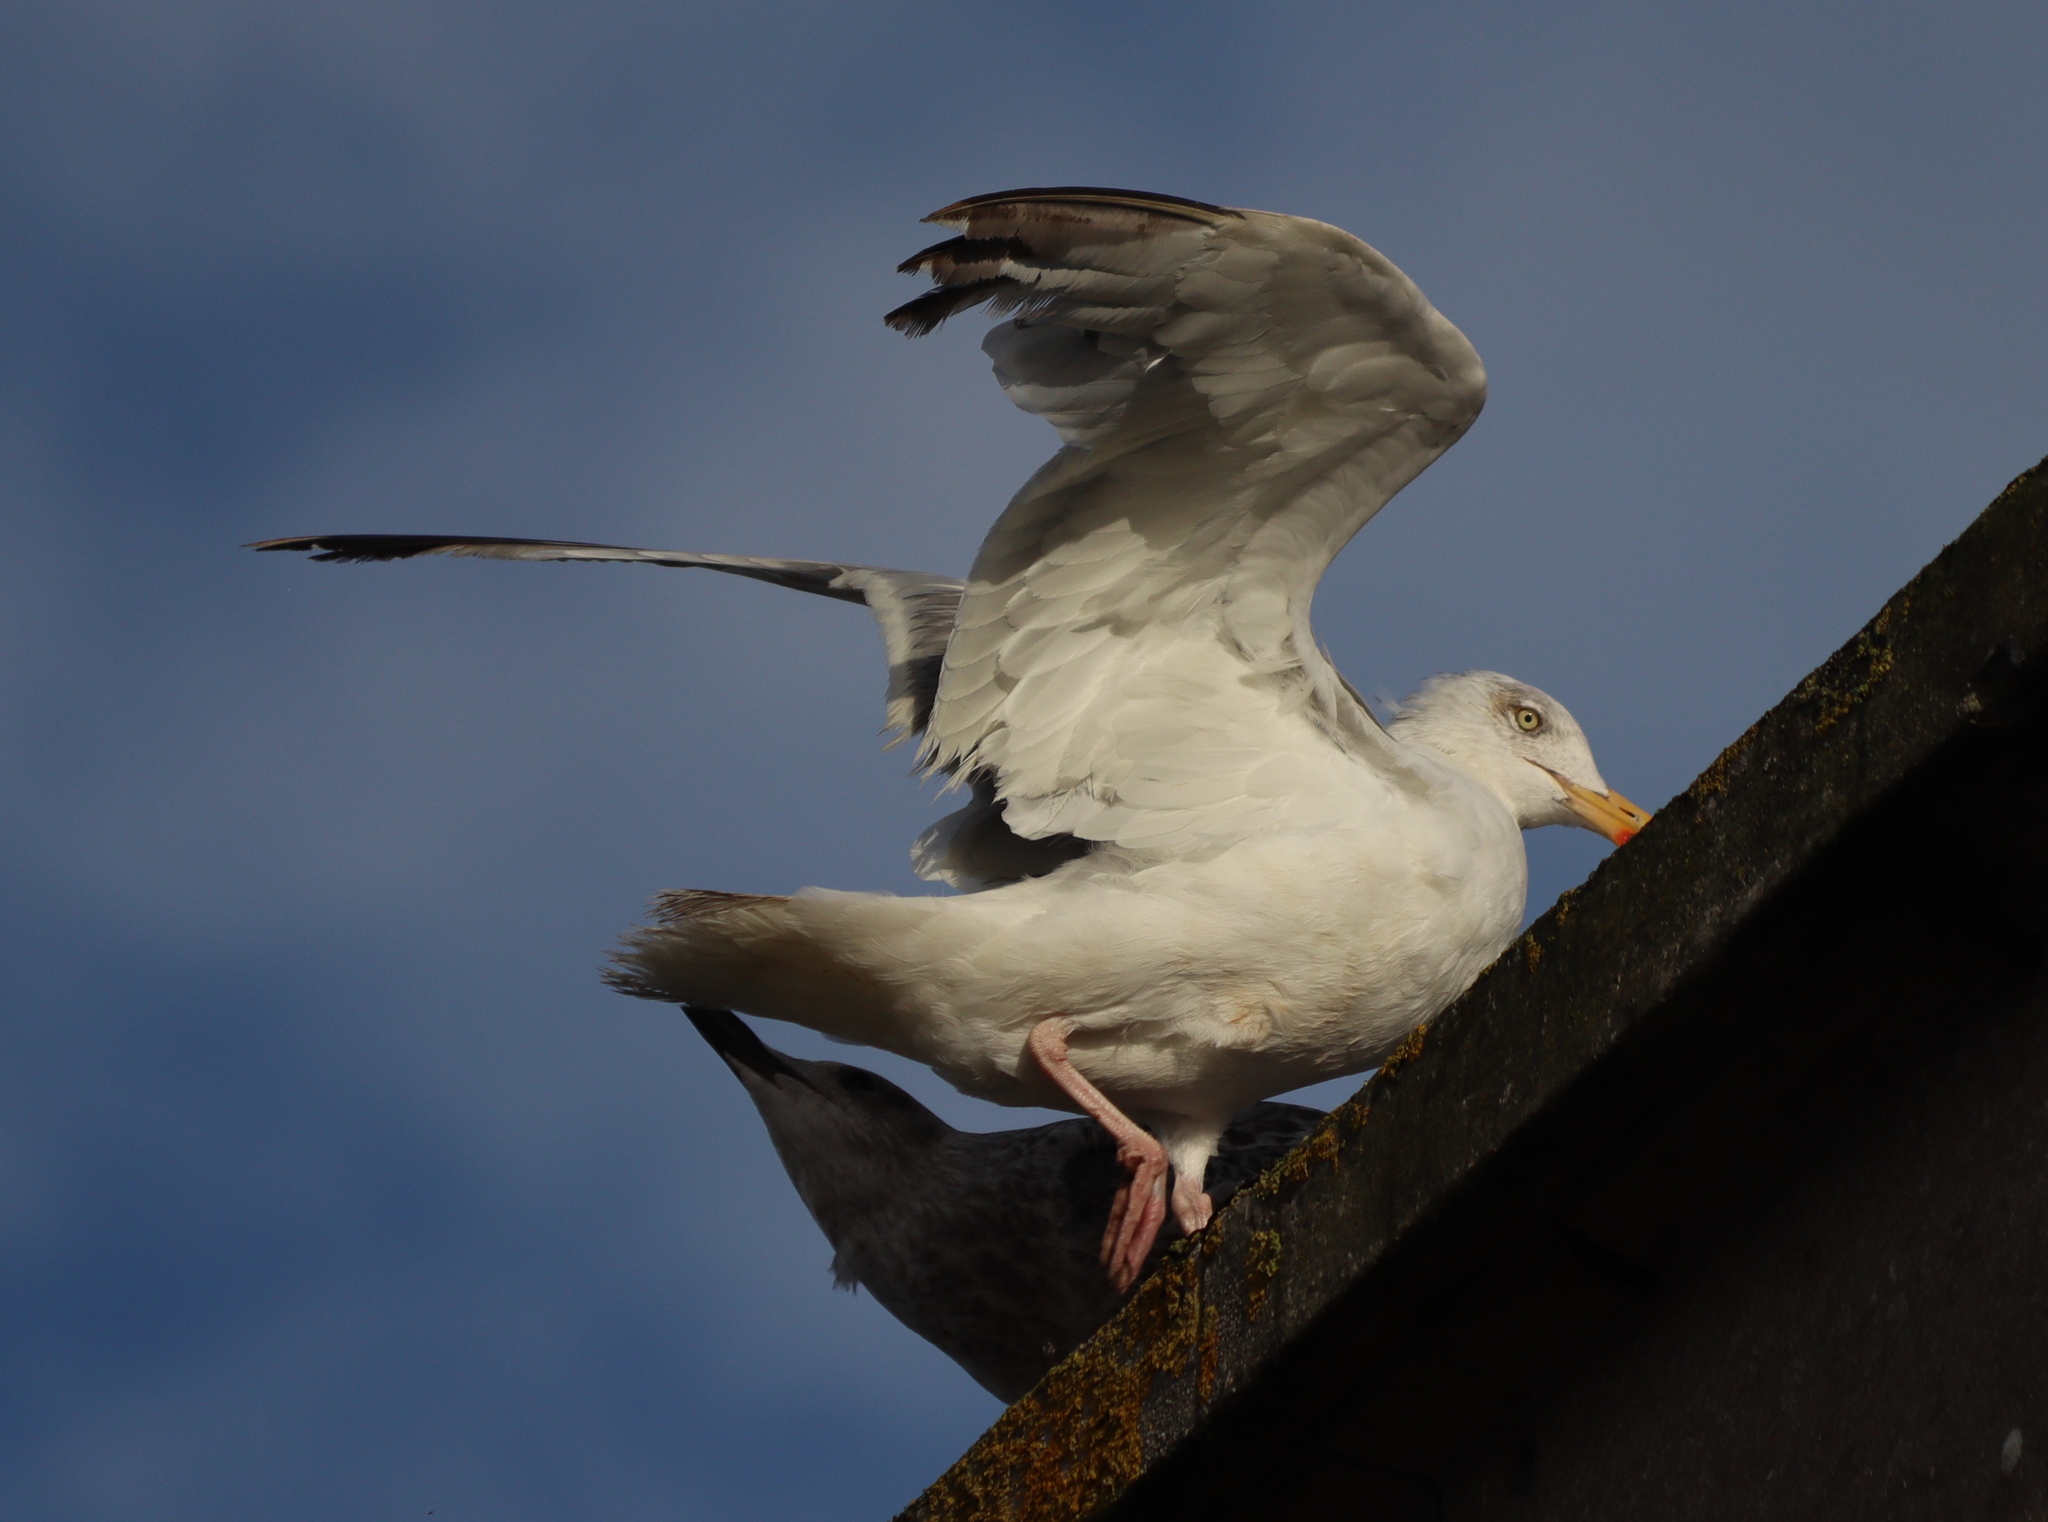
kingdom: Animalia
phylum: Chordata
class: Aves
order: Charadriiformes
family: Laridae
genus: Larus
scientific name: Larus argentatus
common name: Herring gull
